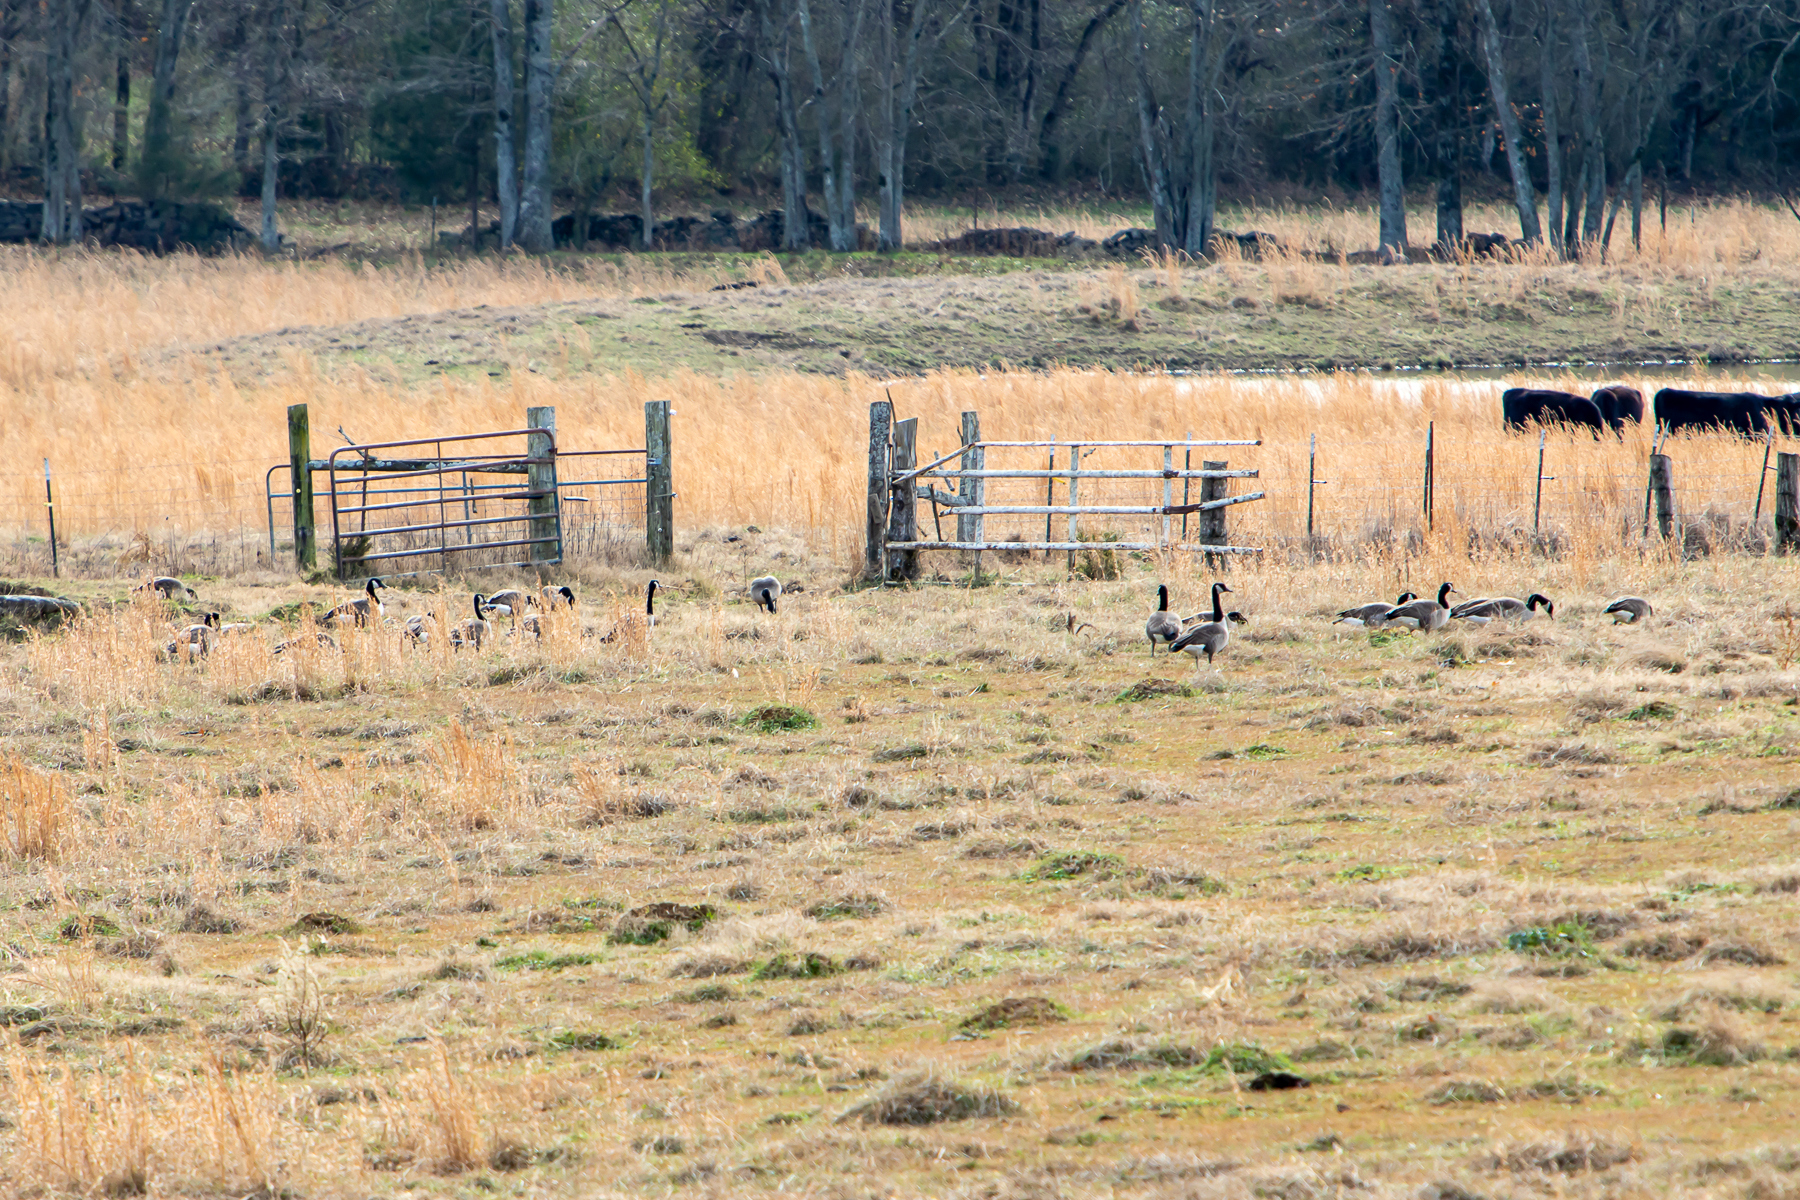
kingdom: Animalia
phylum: Chordata
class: Aves
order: Anseriformes
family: Anatidae
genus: Branta
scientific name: Branta canadensis
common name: Canada goose
